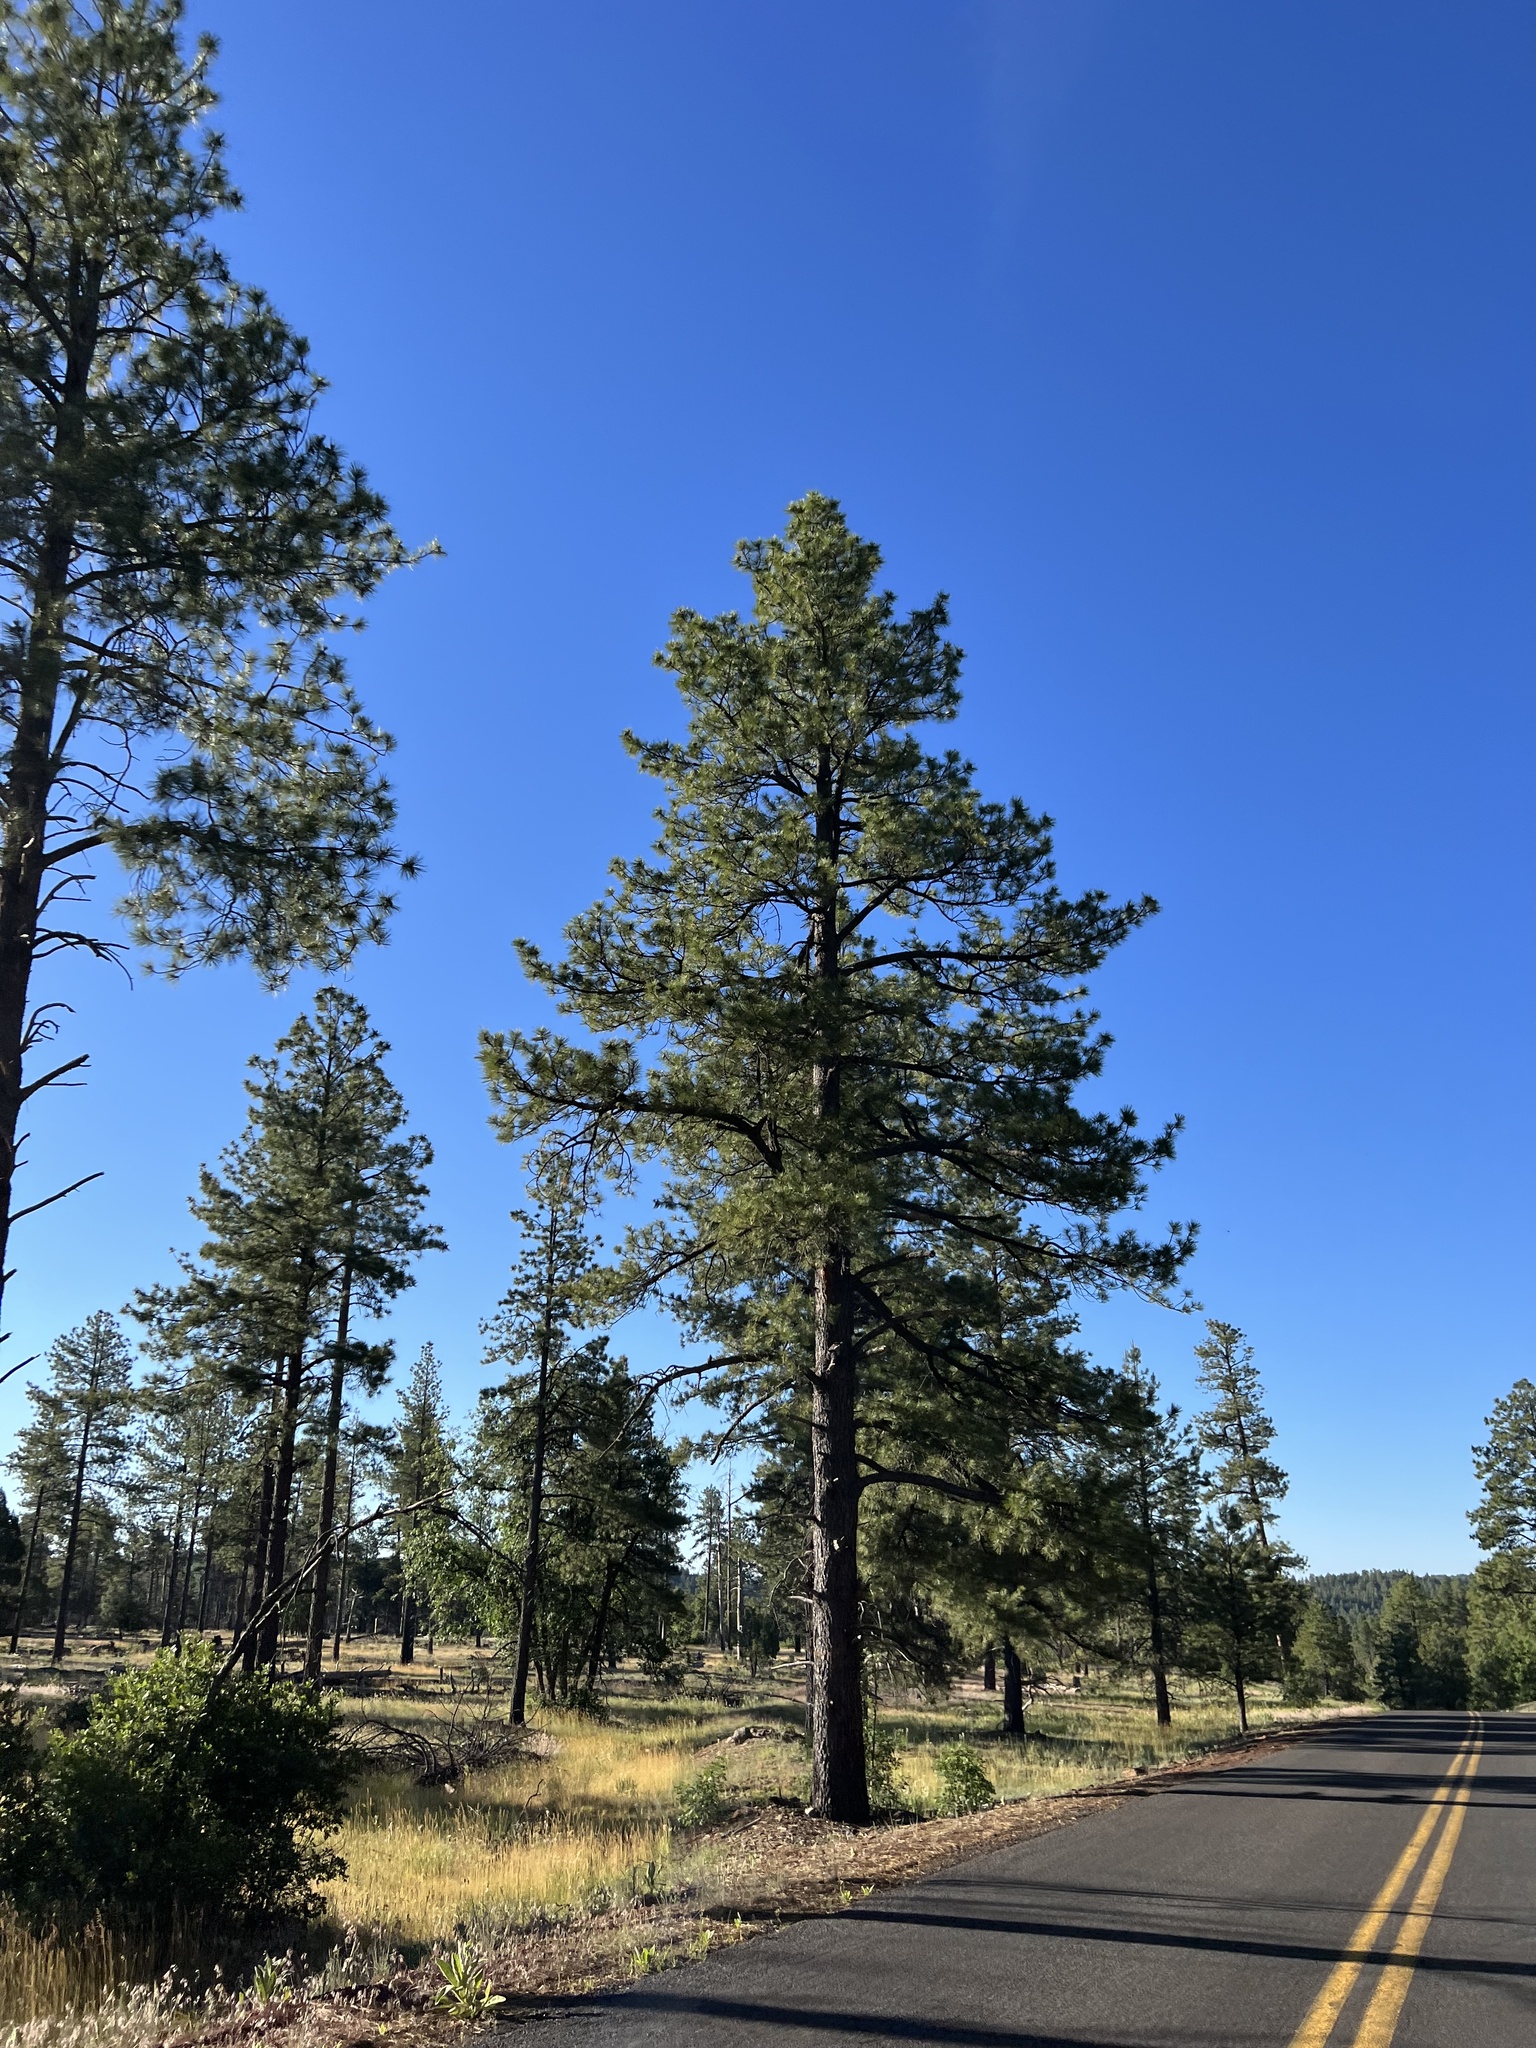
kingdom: Plantae
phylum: Tracheophyta
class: Pinopsida
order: Pinales
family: Pinaceae
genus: Pinus
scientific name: Pinus ponderosa
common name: Western yellow-pine
